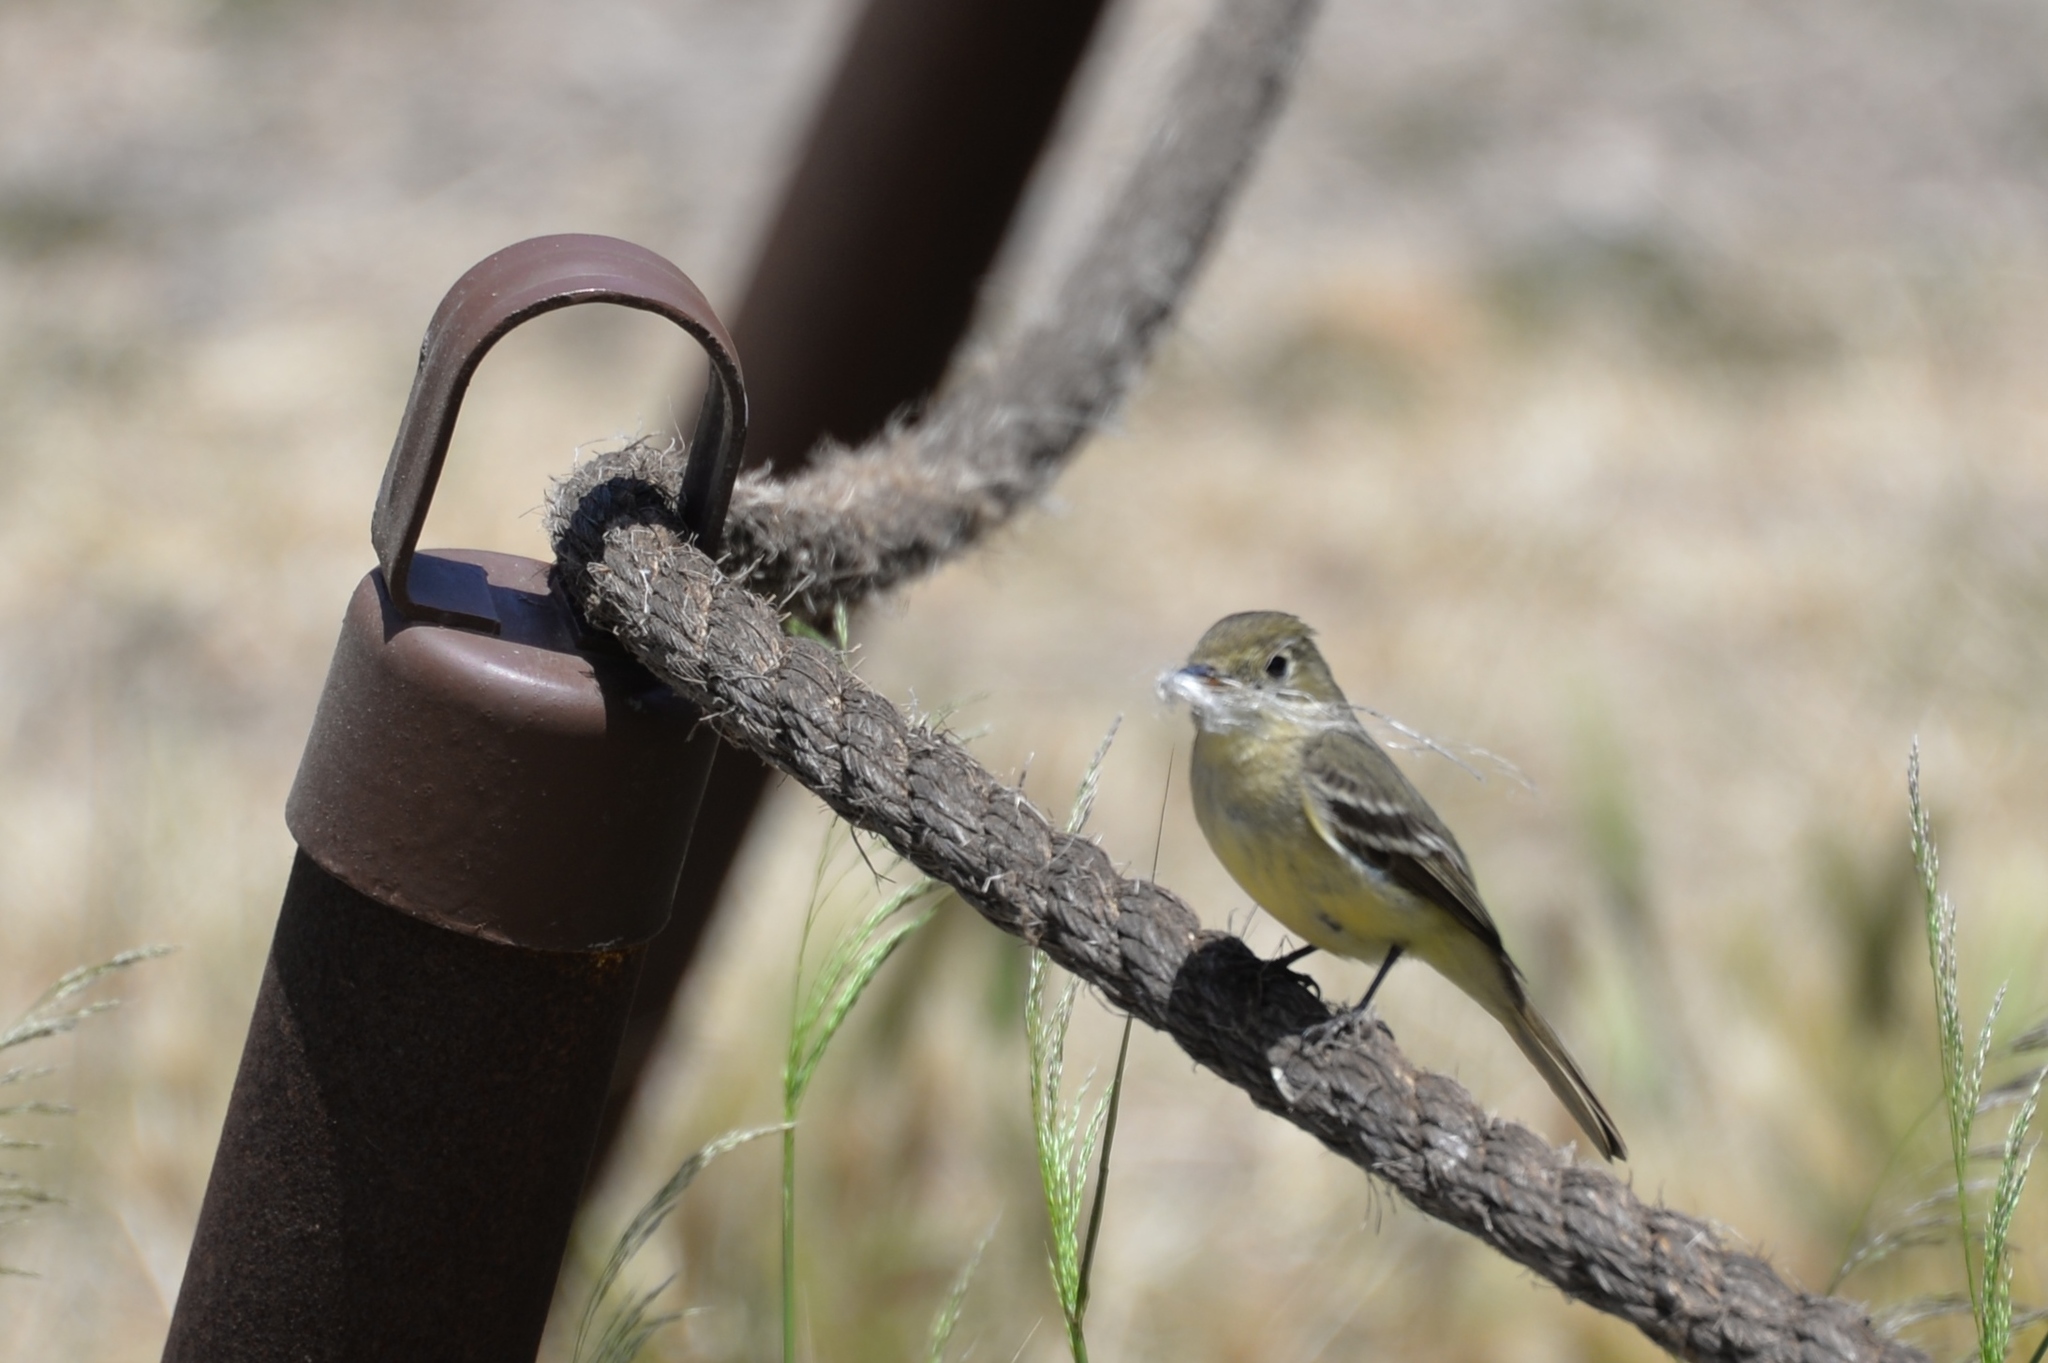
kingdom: Animalia
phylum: Chordata
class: Aves
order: Passeriformes
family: Tyrannidae
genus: Empidonax
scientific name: Empidonax difficilis
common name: Pacific-slope flycatcher
